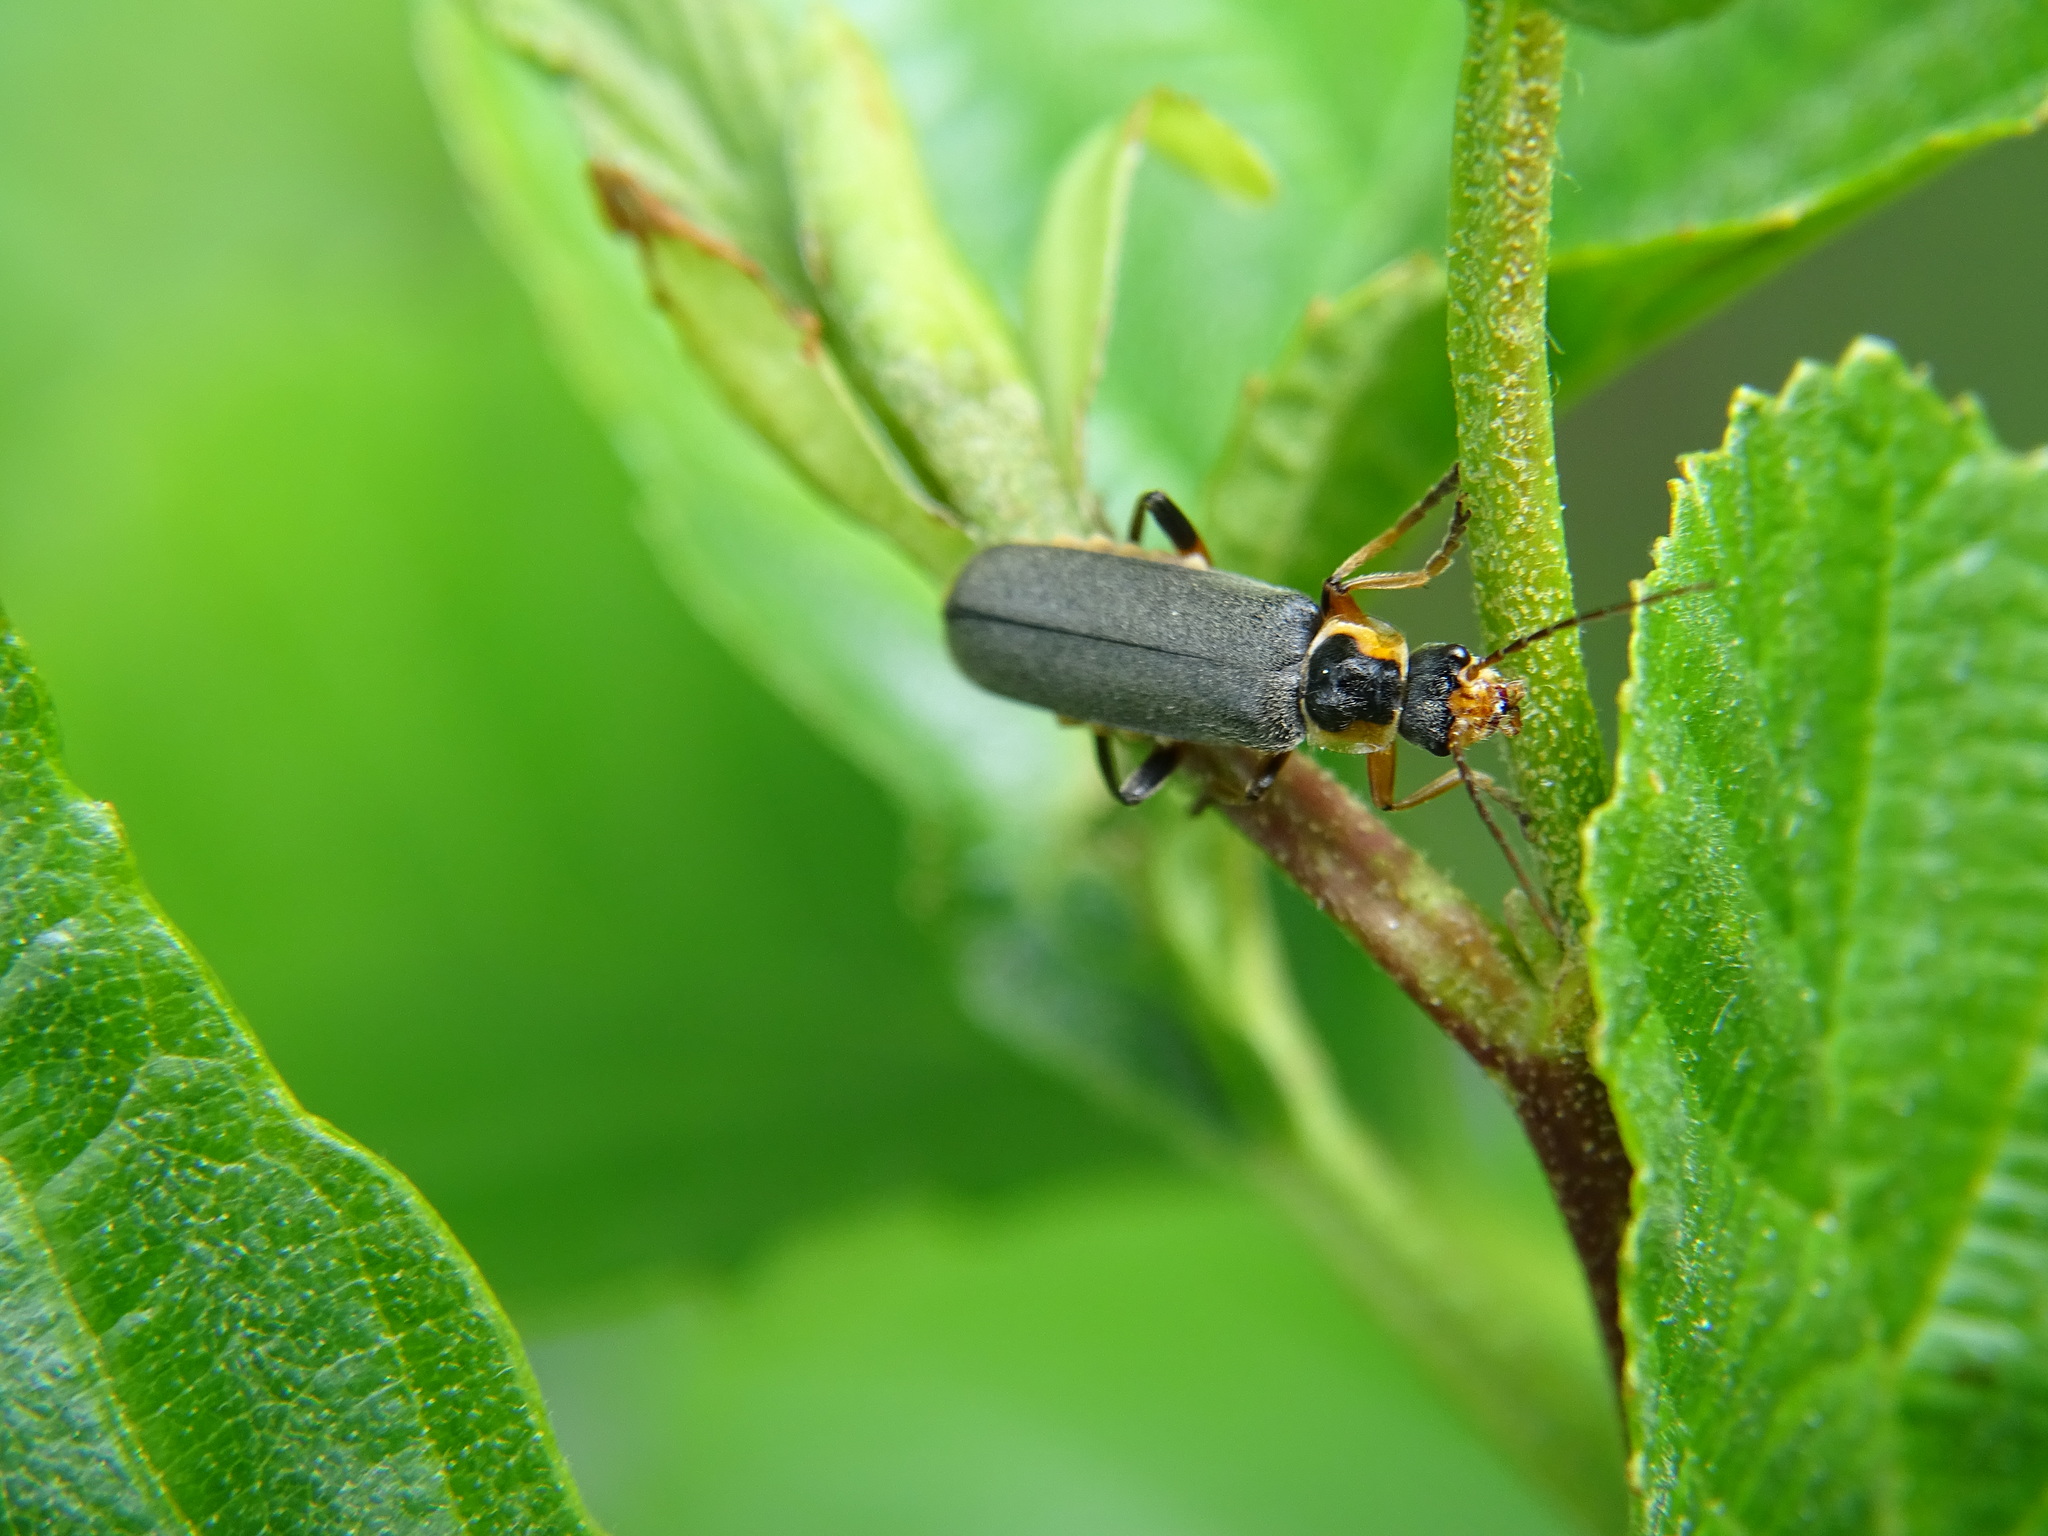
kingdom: Animalia
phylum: Arthropoda
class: Insecta
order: Coleoptera
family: Cantharidae
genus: Cantharis
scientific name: Cantharis nigricans
